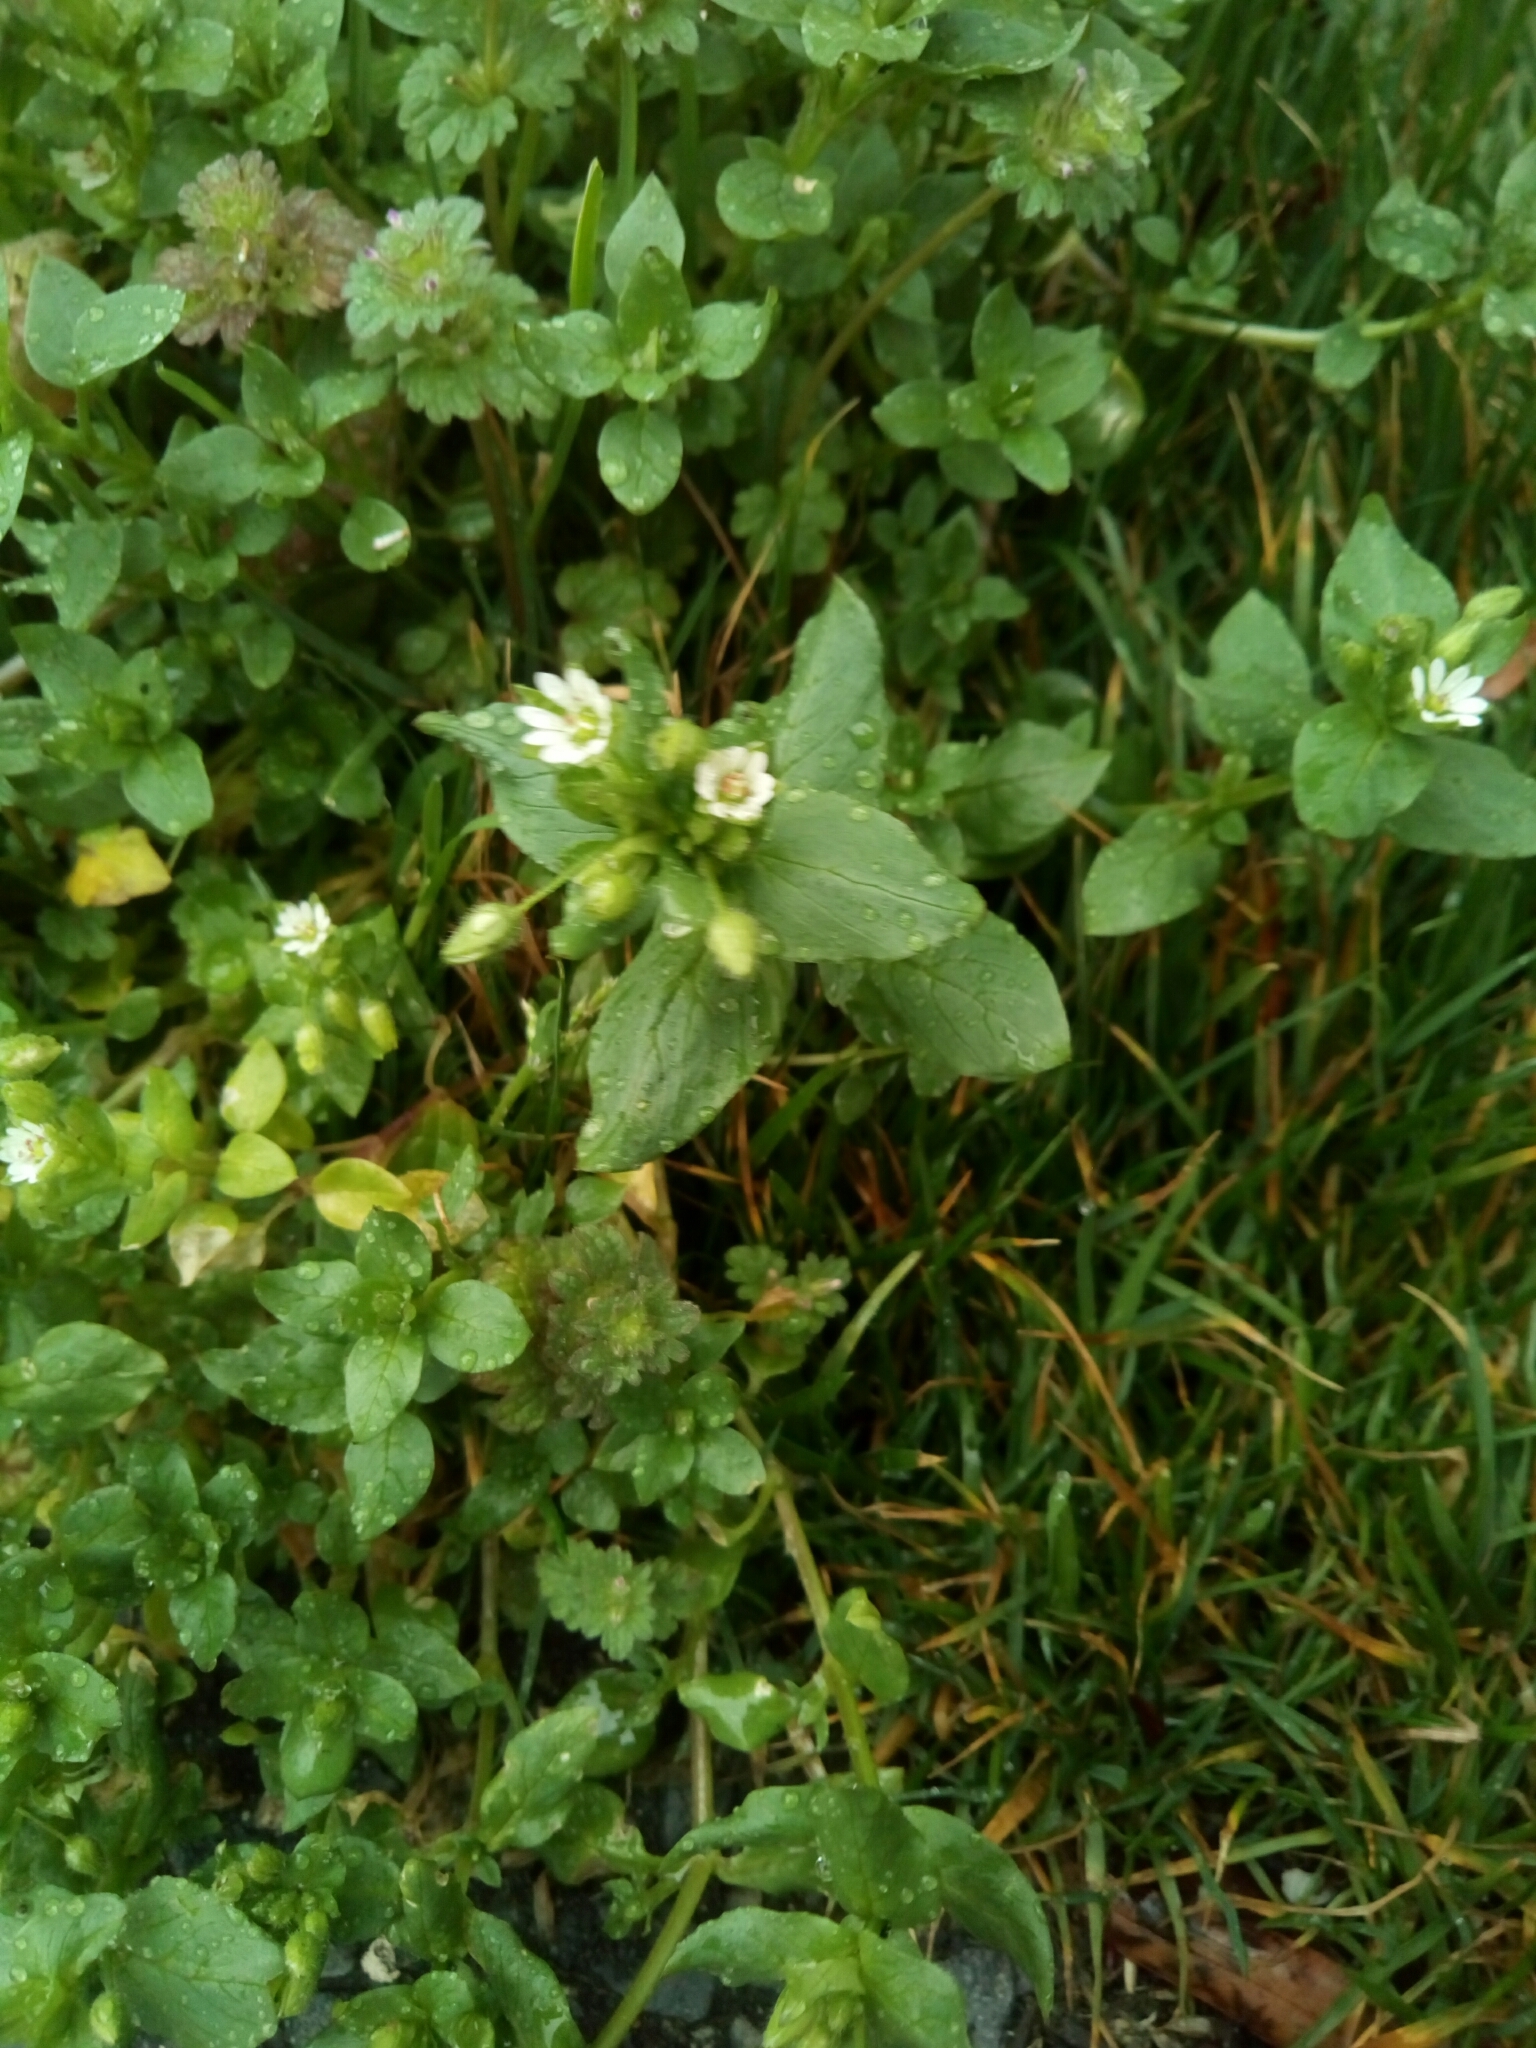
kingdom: Plantae
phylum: Tracheophyta
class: Magnoliopsida
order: Caryophyllales
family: Caryophyllaceae
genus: Stellaria
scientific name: Stellaria media
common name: Common chickweed
